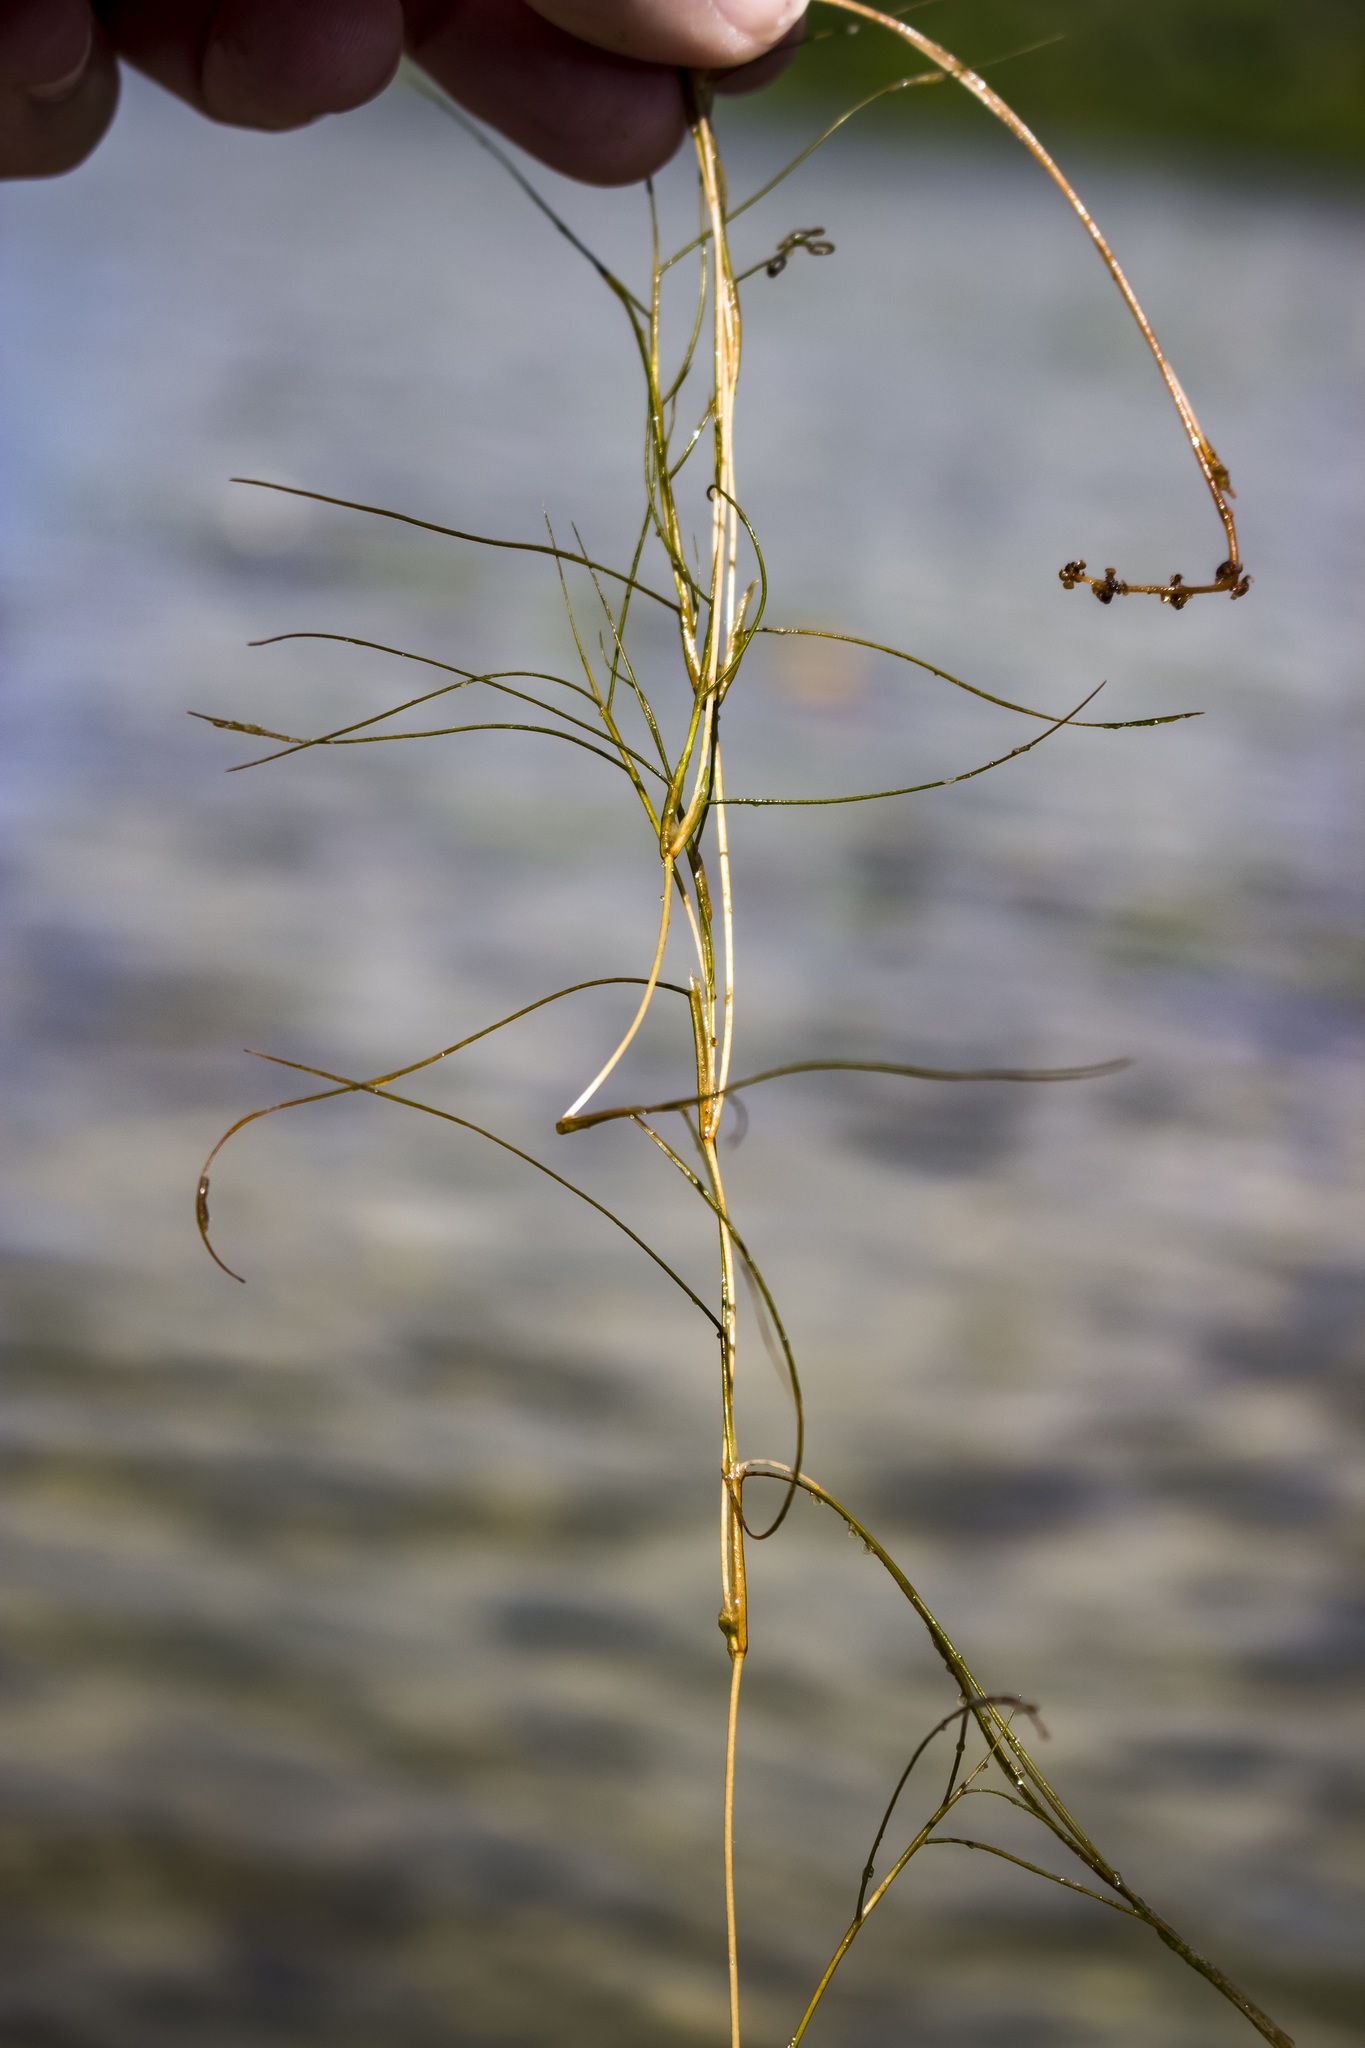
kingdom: Plantae
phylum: Tracheophyta
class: Liliopsida
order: Alismatales
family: Potamogetonaceae
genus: Stuckenia
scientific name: Stuckenia pectinata
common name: Sago pondweed
